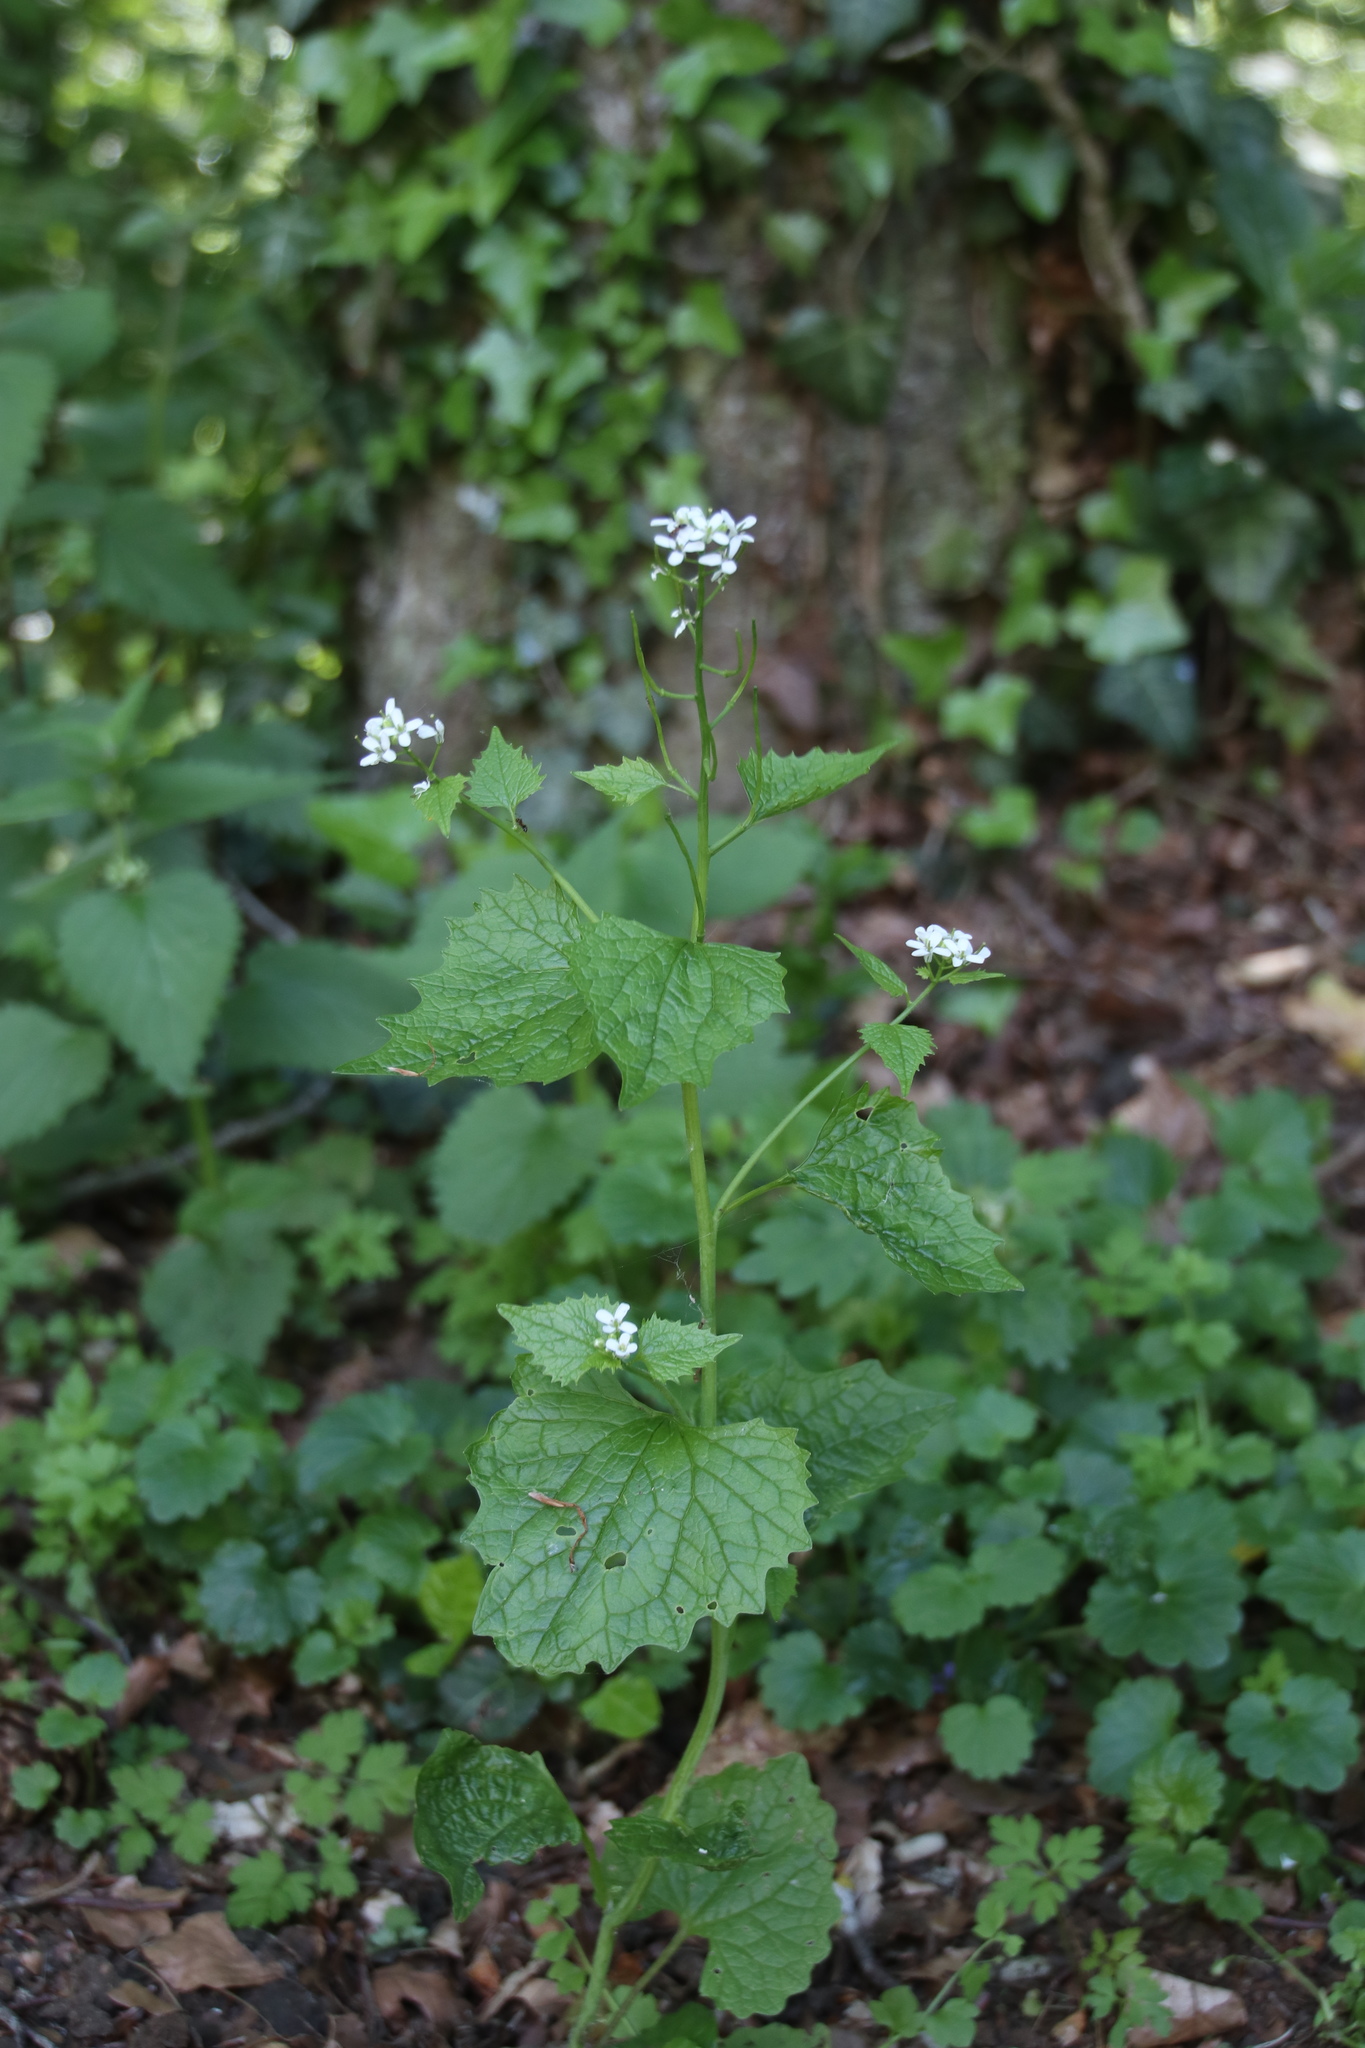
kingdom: Plantae
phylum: Tracheophyta
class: Magnoliopsida
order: Brassicales
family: Brassicaceae
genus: Alliaria
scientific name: Alliaria petiolata
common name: Garlic mustard
